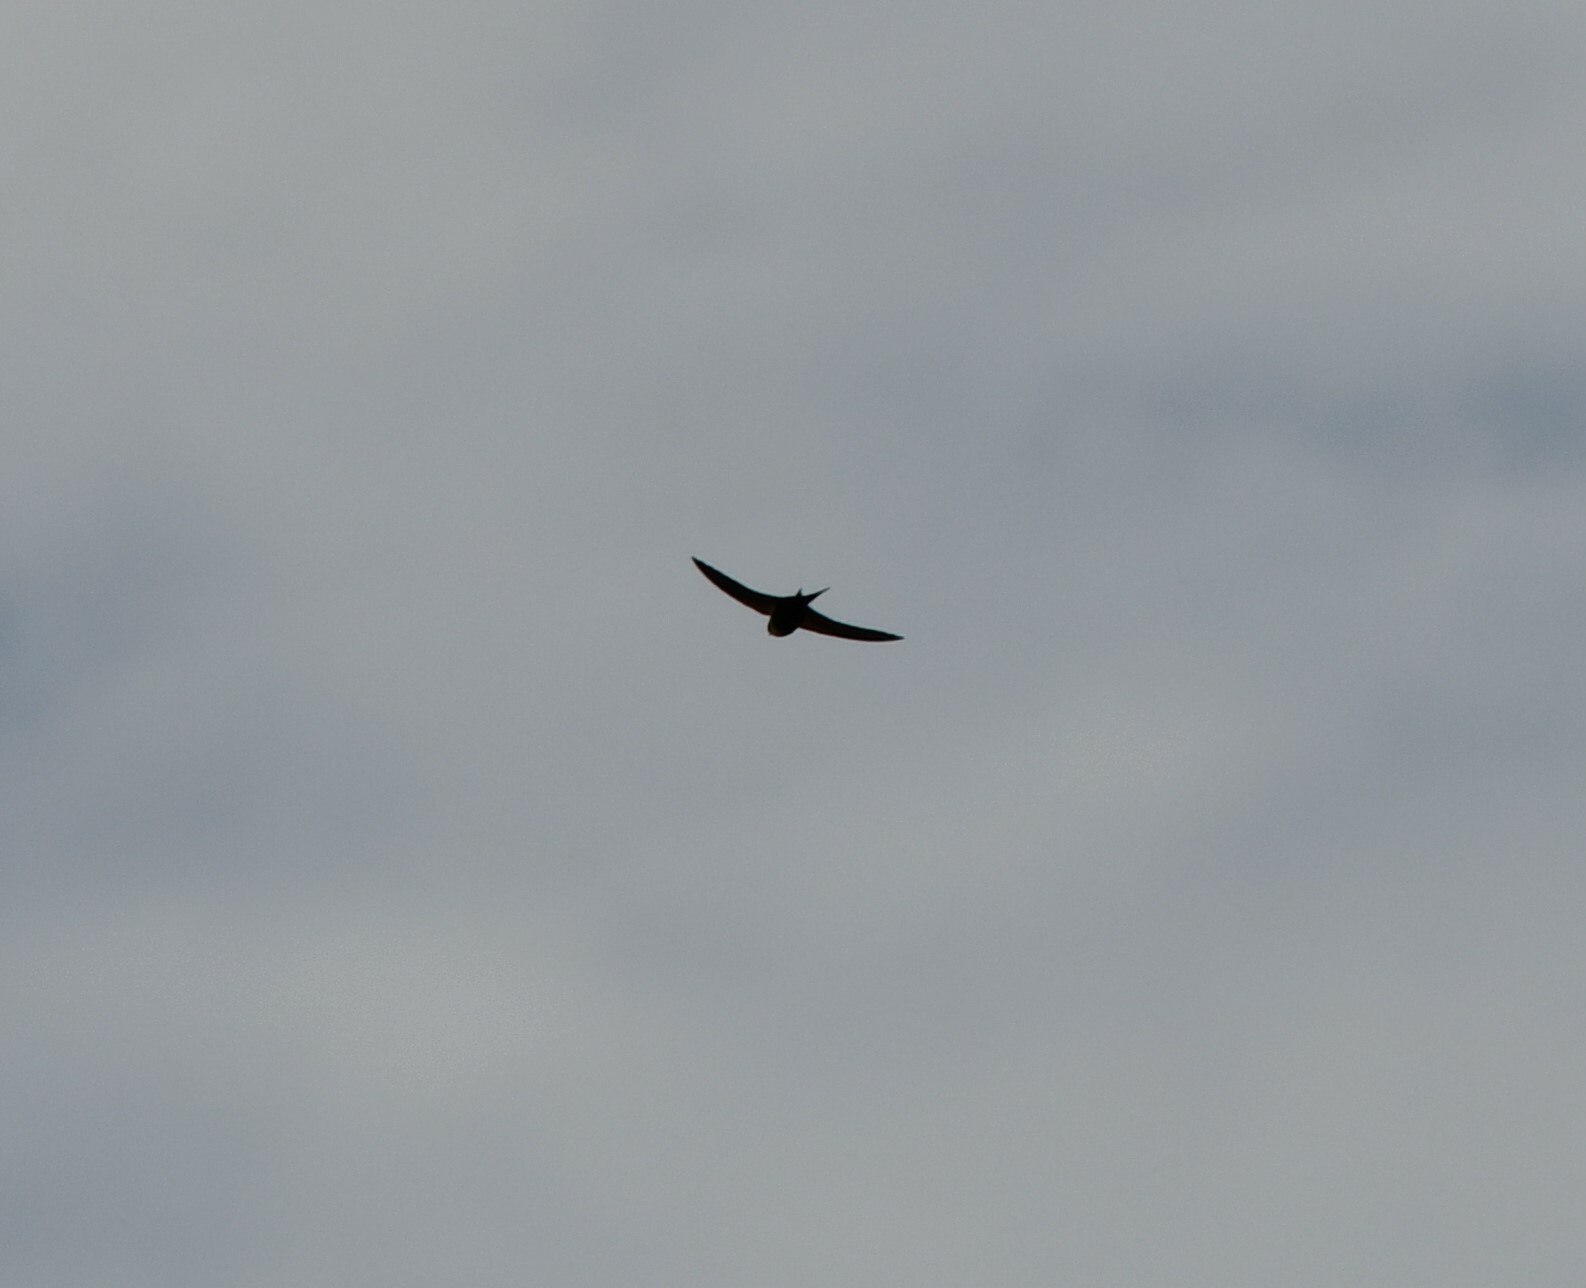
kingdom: Animalia
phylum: Chordata
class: Aves
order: Passeriformes
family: Hirundinidae
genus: Cheramoeca
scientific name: Cheramoeca leucosterna
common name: White-backed swallow
